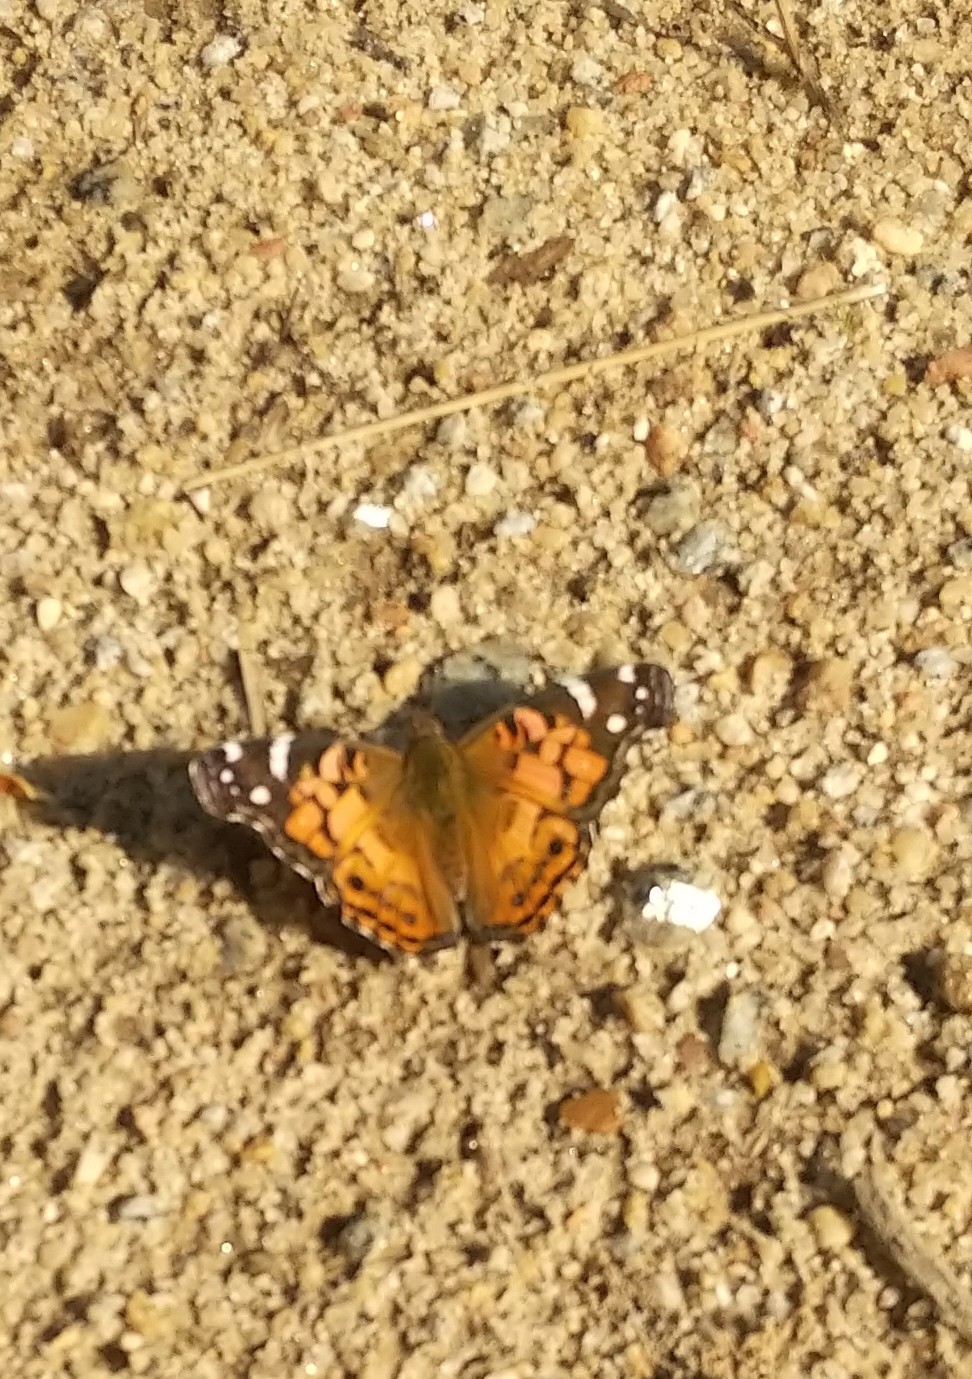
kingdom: Animalia
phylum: Arthropoda
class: Insecta
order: Lepidoptera
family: Nymphalidae
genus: Vanessa
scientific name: Vanessa virginiensis
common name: American lady
